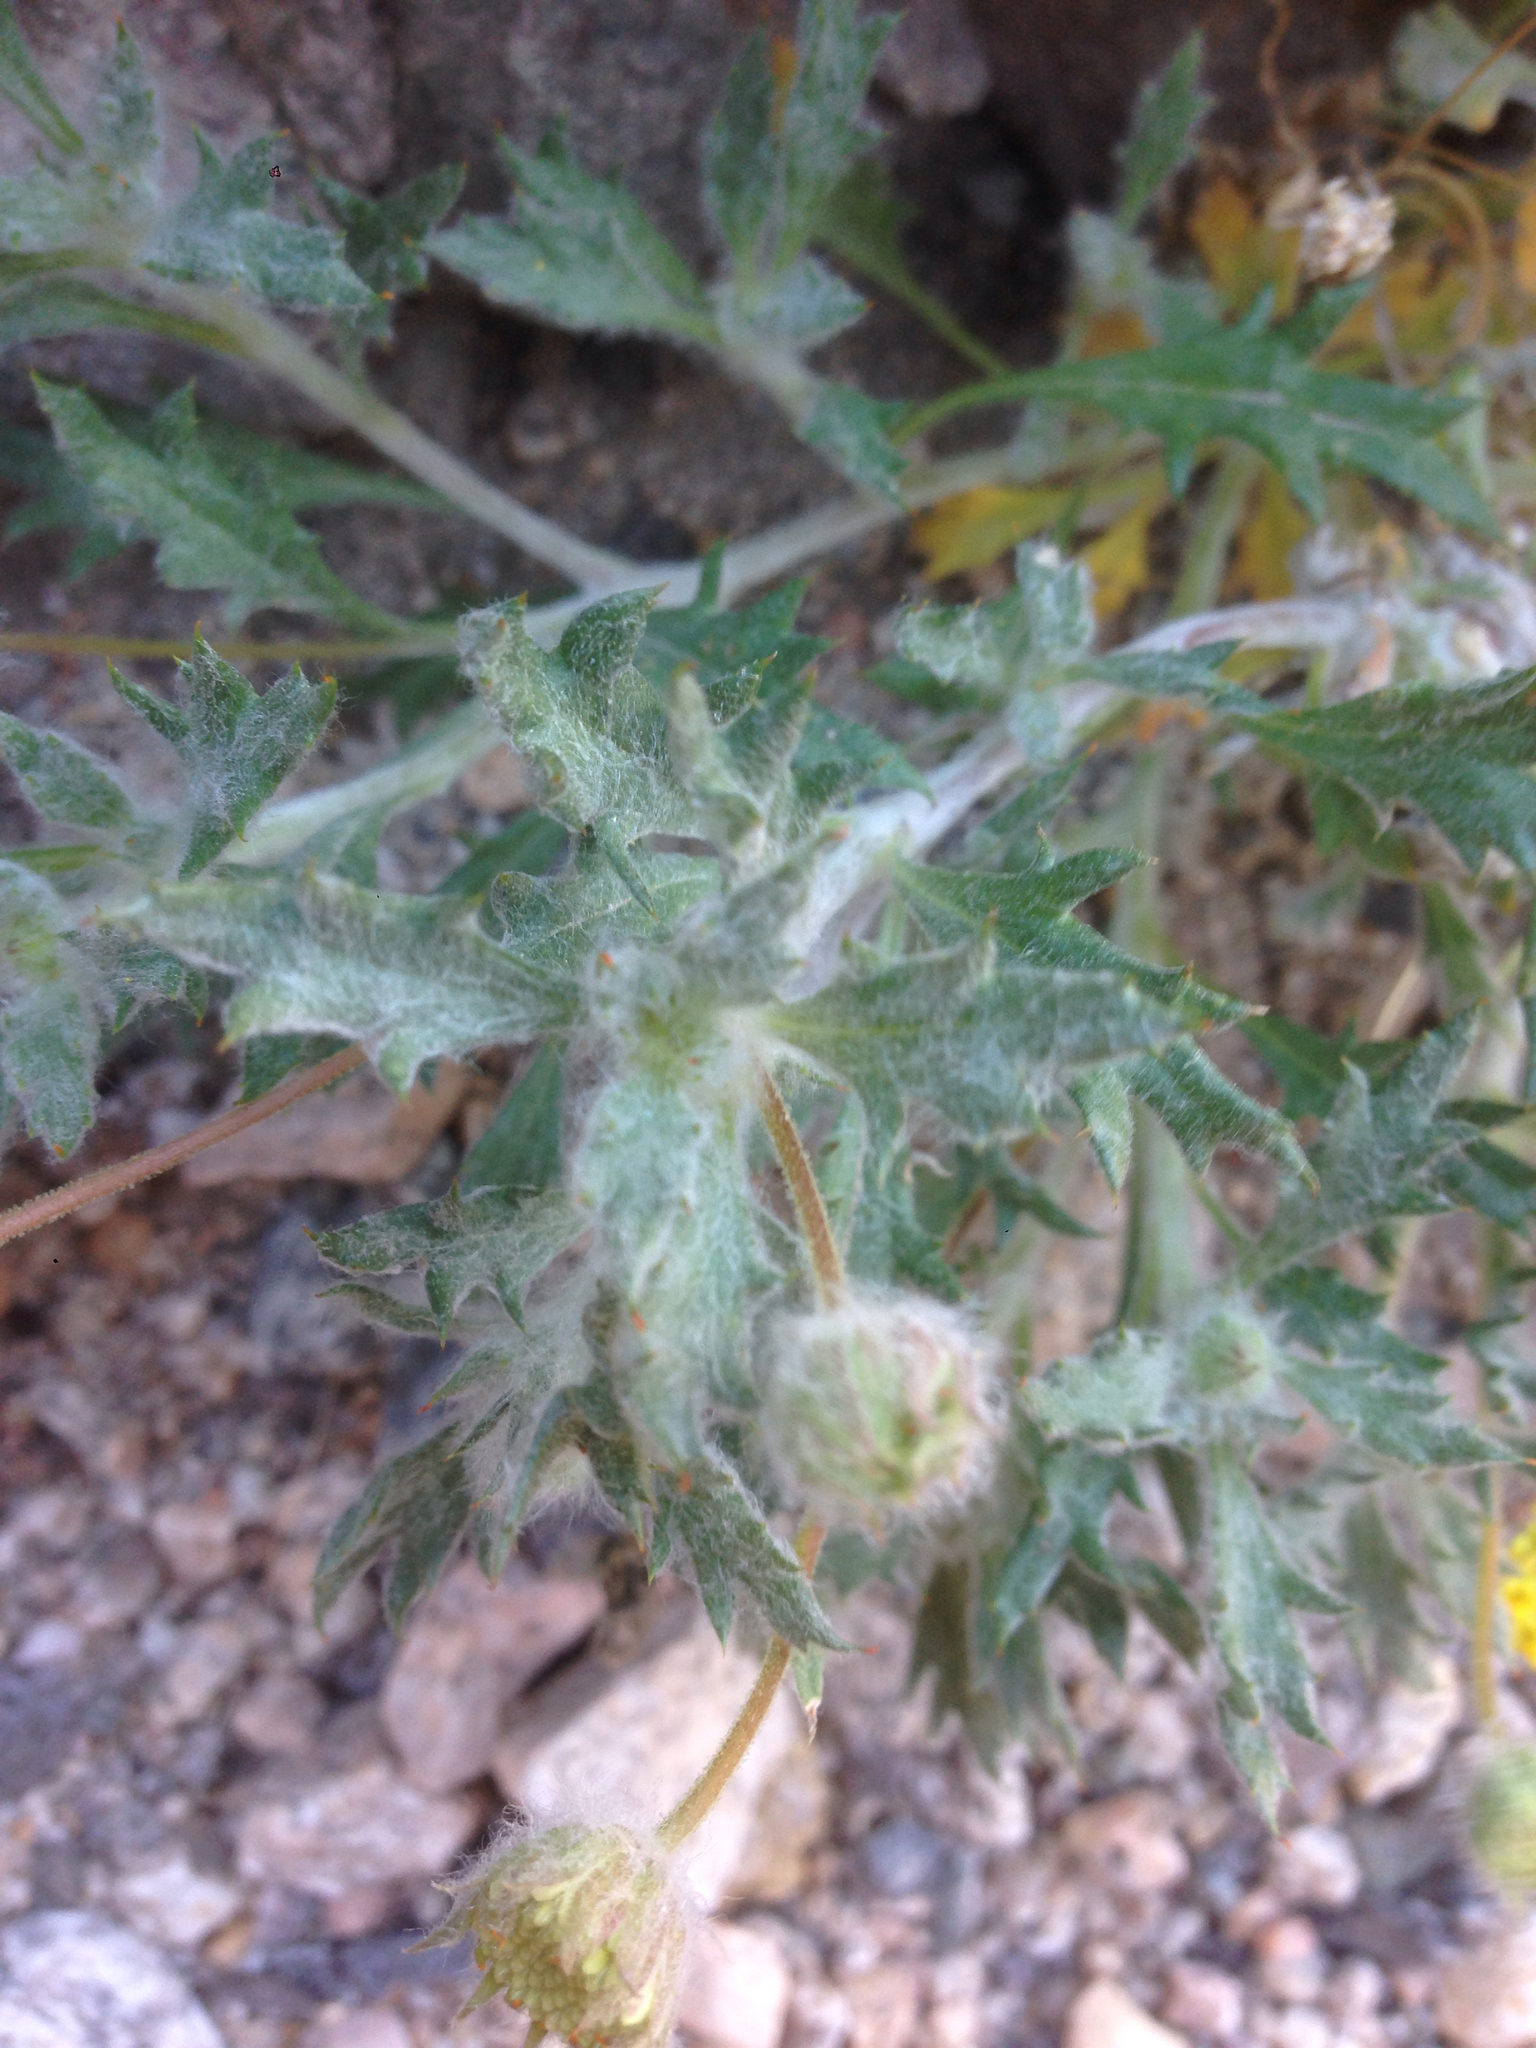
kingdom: Plantae
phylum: Tracheophyta
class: Magnoliopsida
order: Asterales
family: Asteraceae
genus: Trichoptilium
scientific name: Trichoptilium incisum
